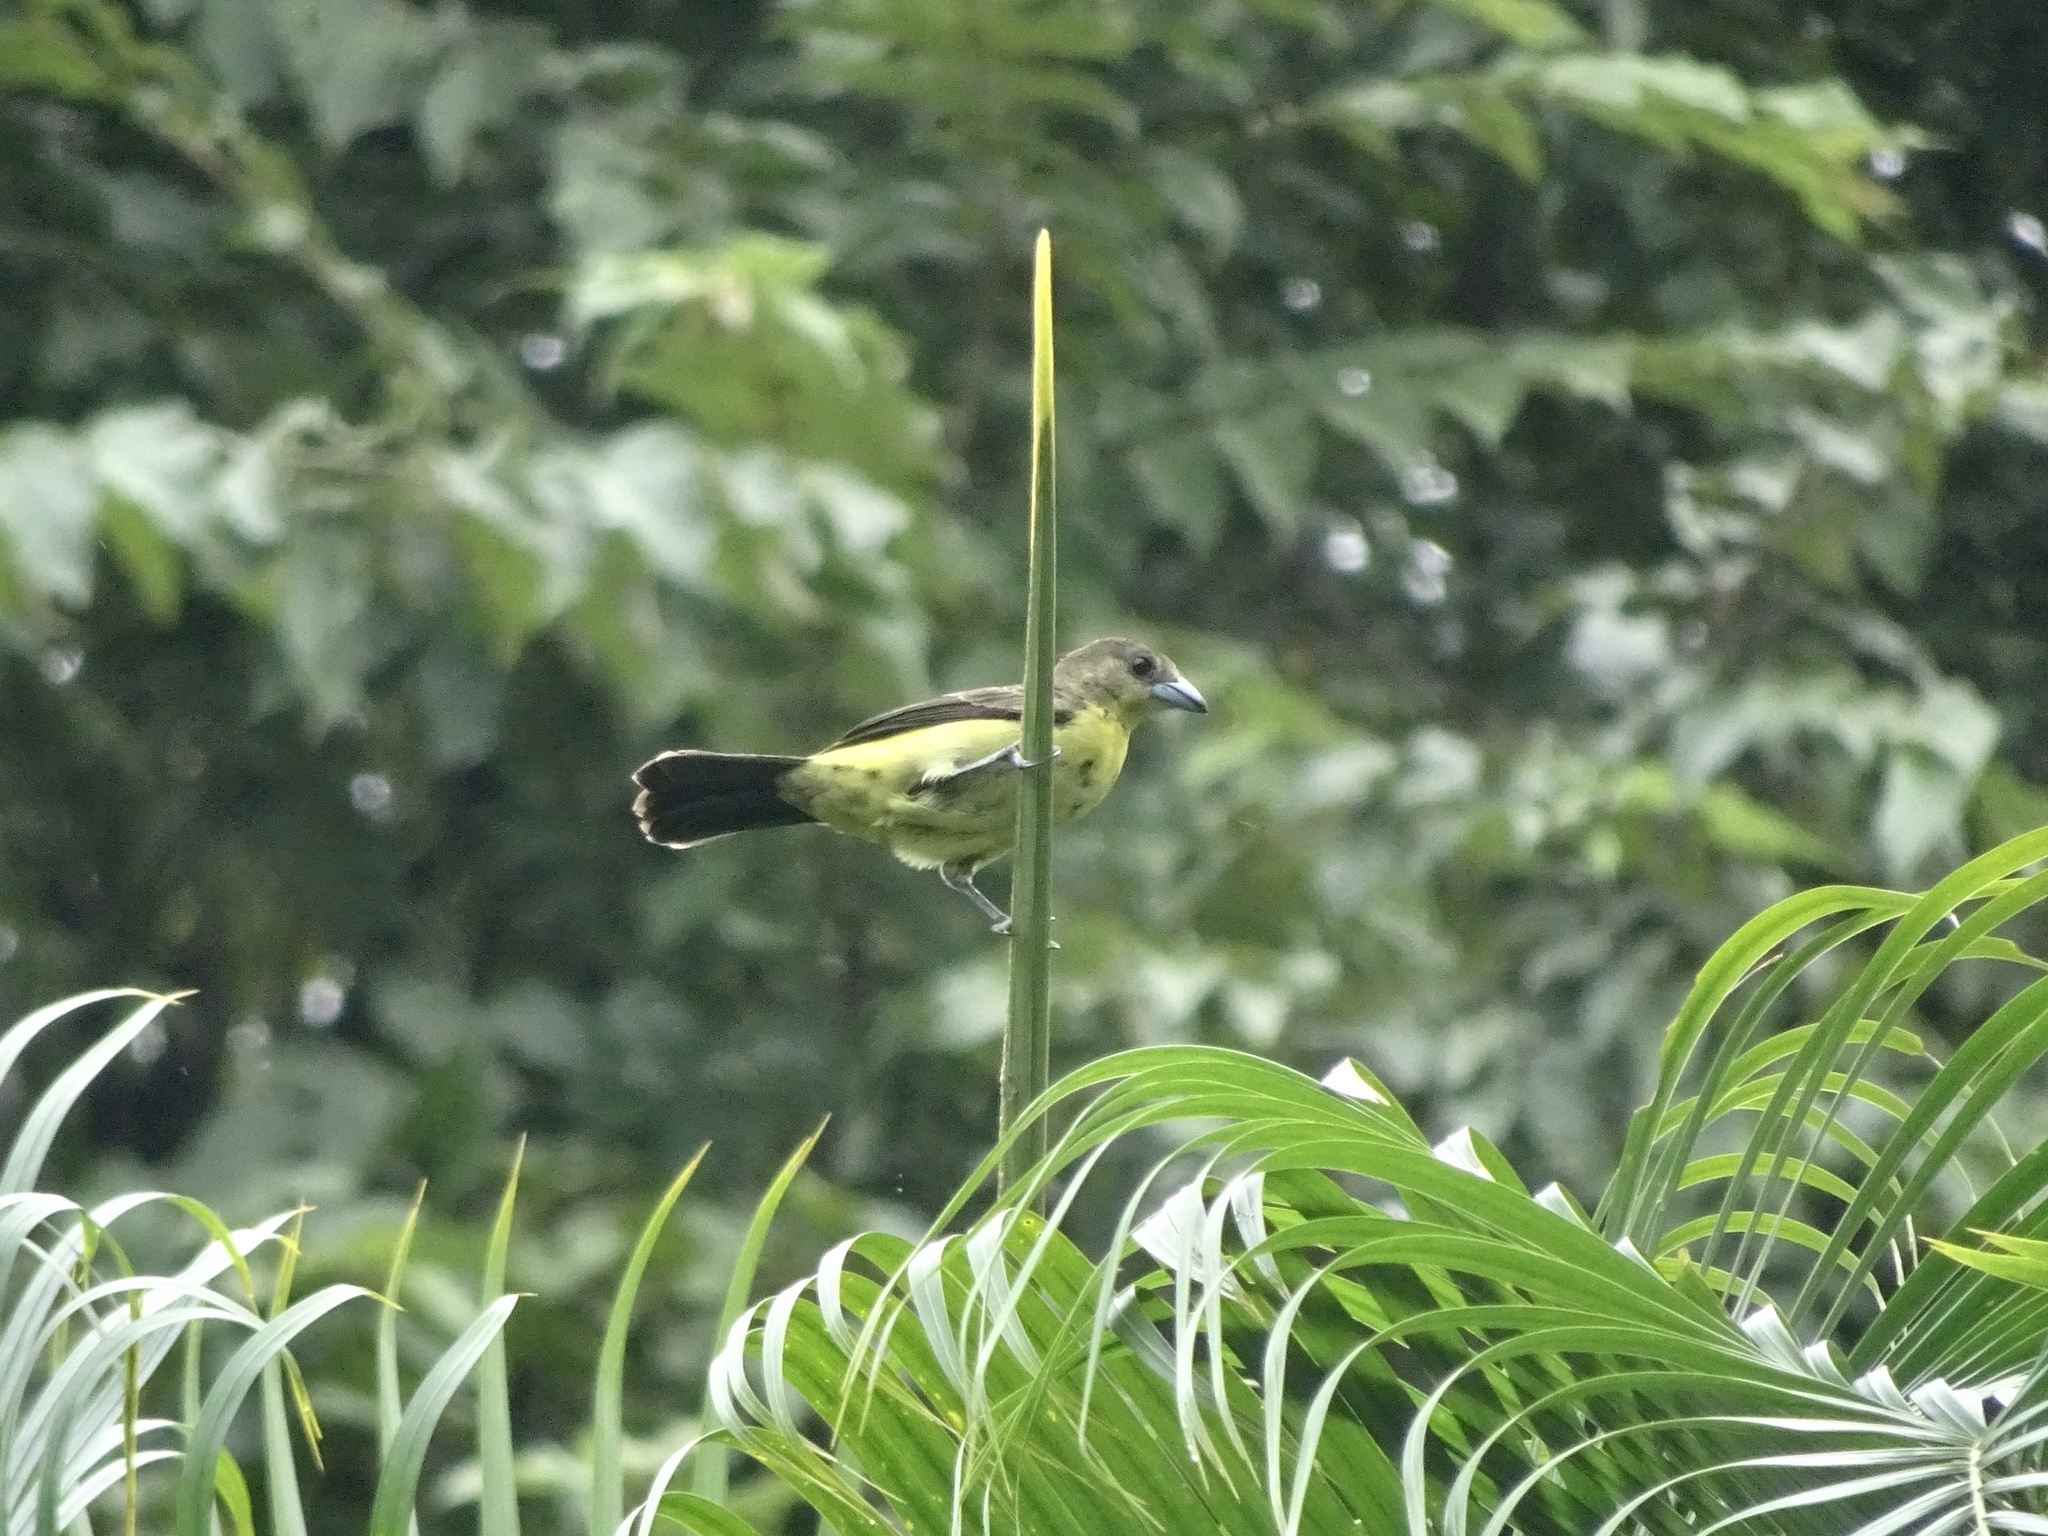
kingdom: Animalia
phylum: Chordata
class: Aves
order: Passeriformes
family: Thraupidae
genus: Ramphocelus
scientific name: Ramphocelus icteronotus
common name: Lemon-rumped tanager
